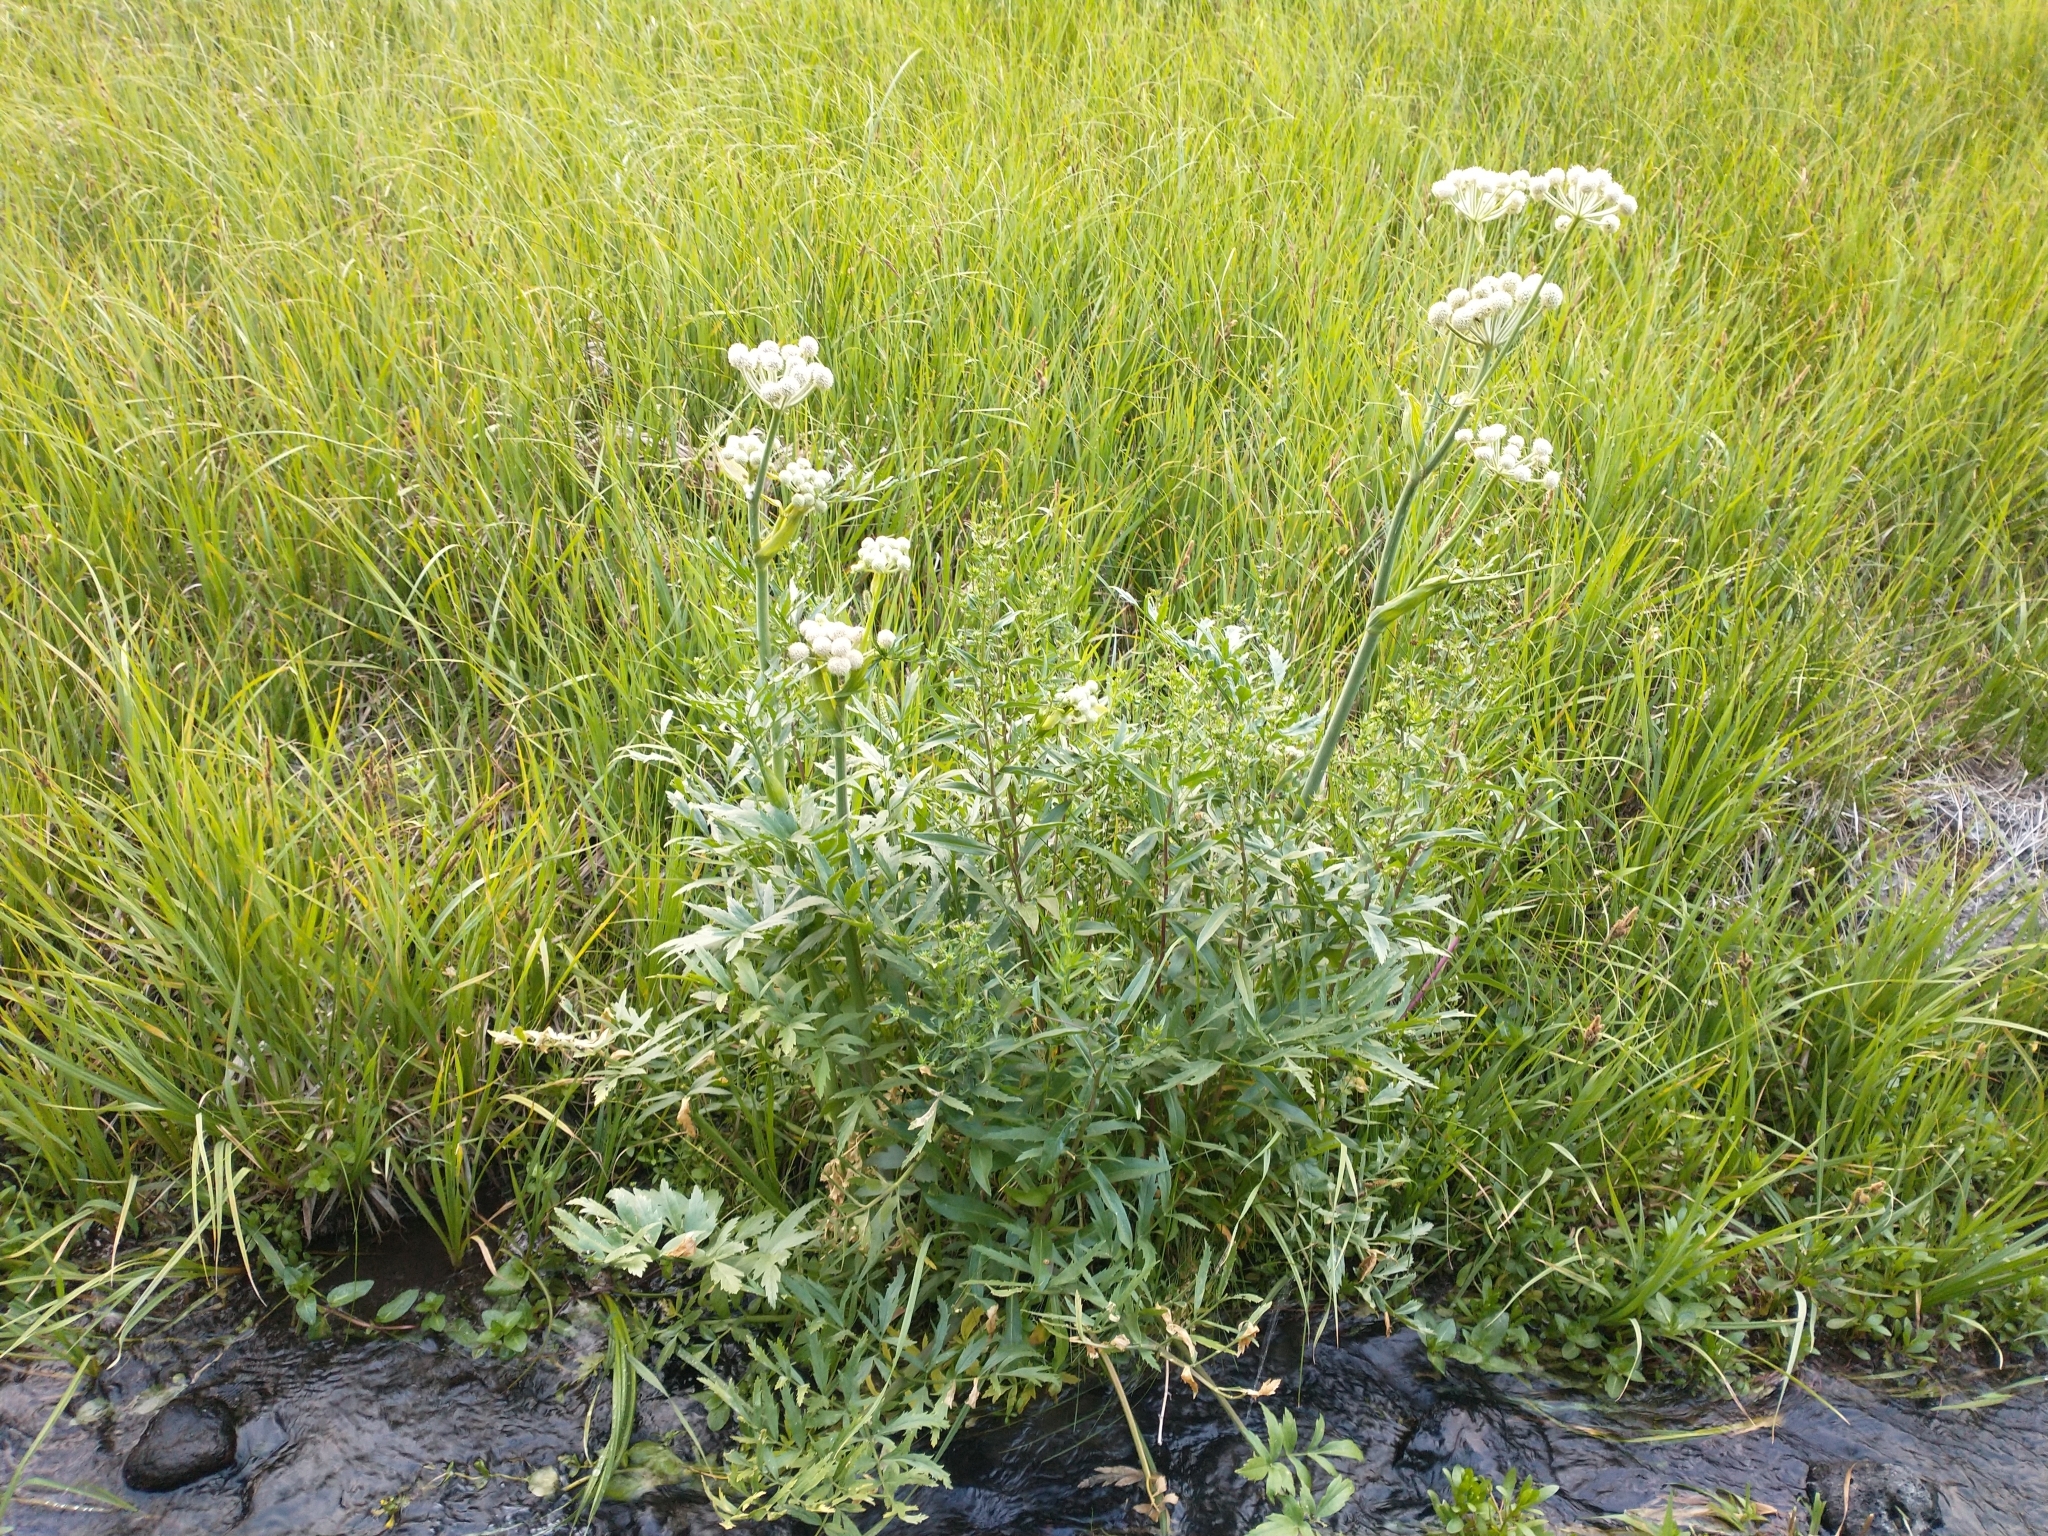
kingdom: Plantae
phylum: Tracheophyta
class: Magnoliopsida
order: Apiales
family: Apiaceae
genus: Angelica
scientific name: Angelica capitellata
